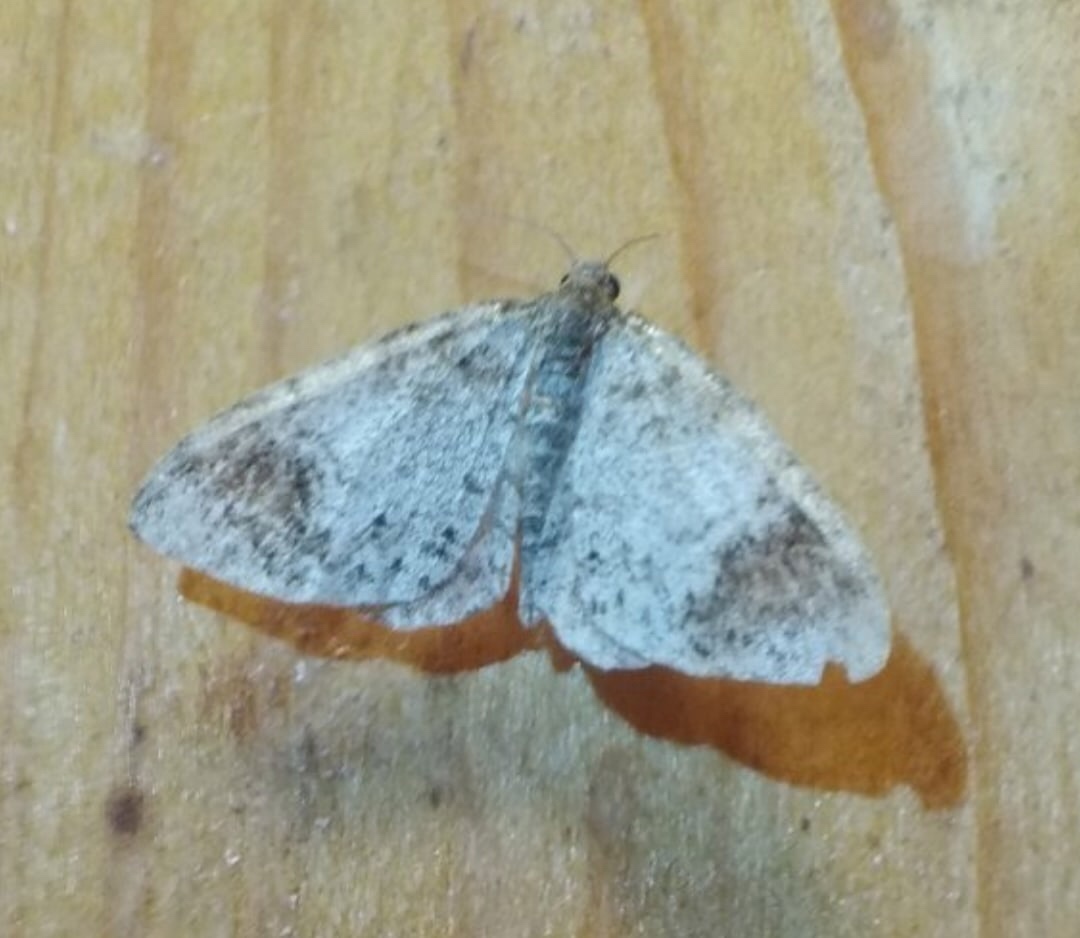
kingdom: Animalia
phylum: Arthropoda
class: Insecta
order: Lepidoptera
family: Geometridae
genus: Venusia
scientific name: Venusia blomeri
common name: Blomer's rivulet
